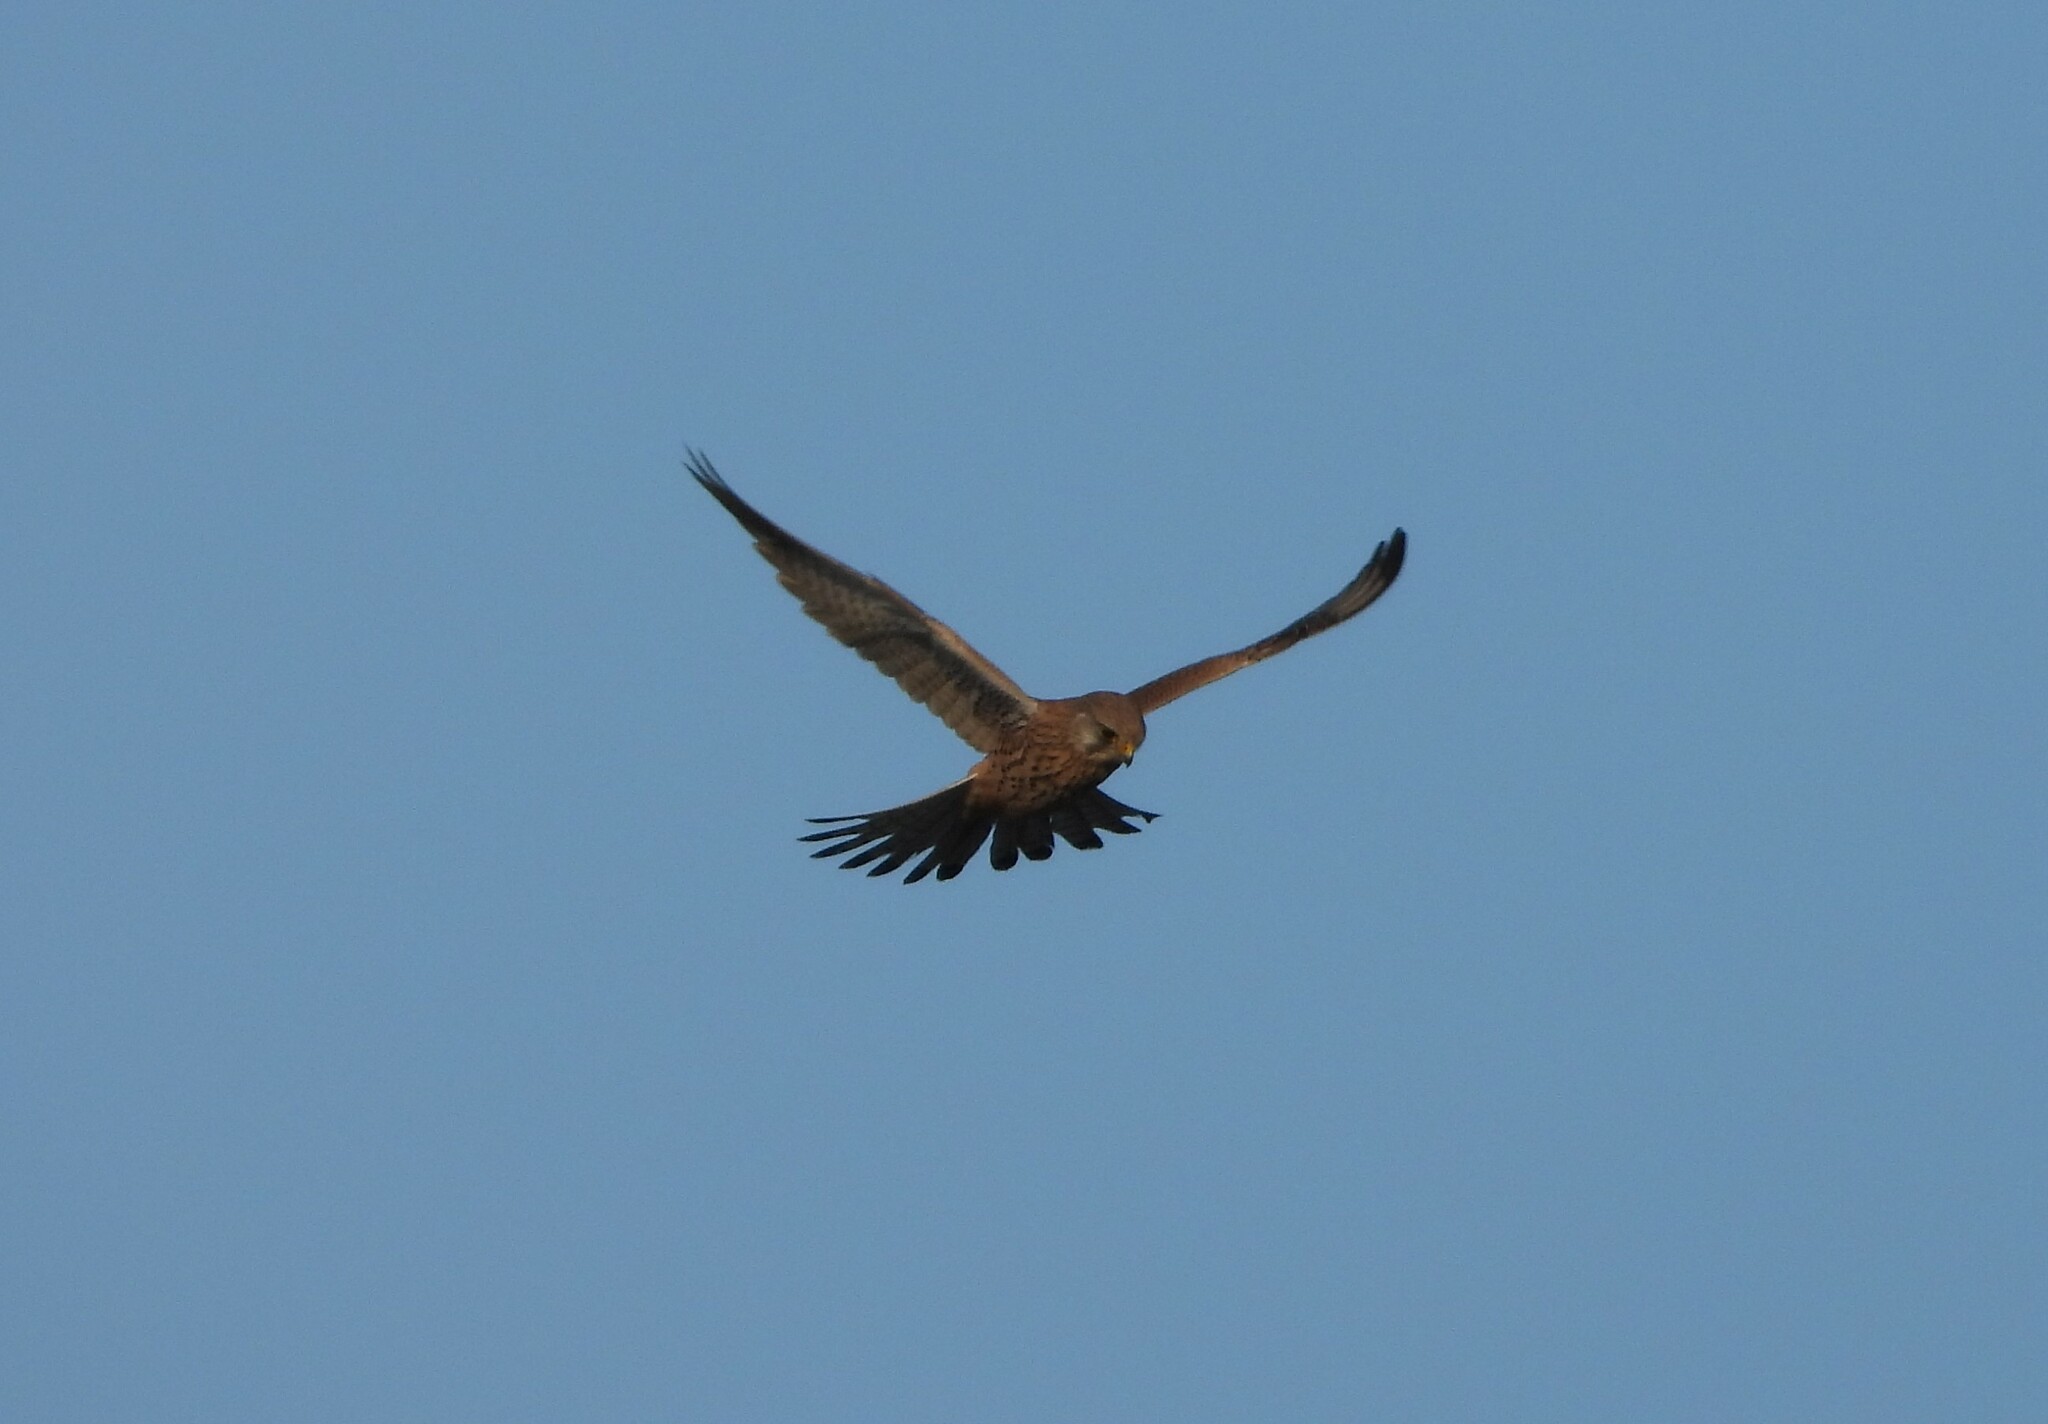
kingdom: Animalia
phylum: Chordata
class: Aves
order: Falconiformes
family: Falconidae
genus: Falco
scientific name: Falco tinnunculus
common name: Common kestrel
